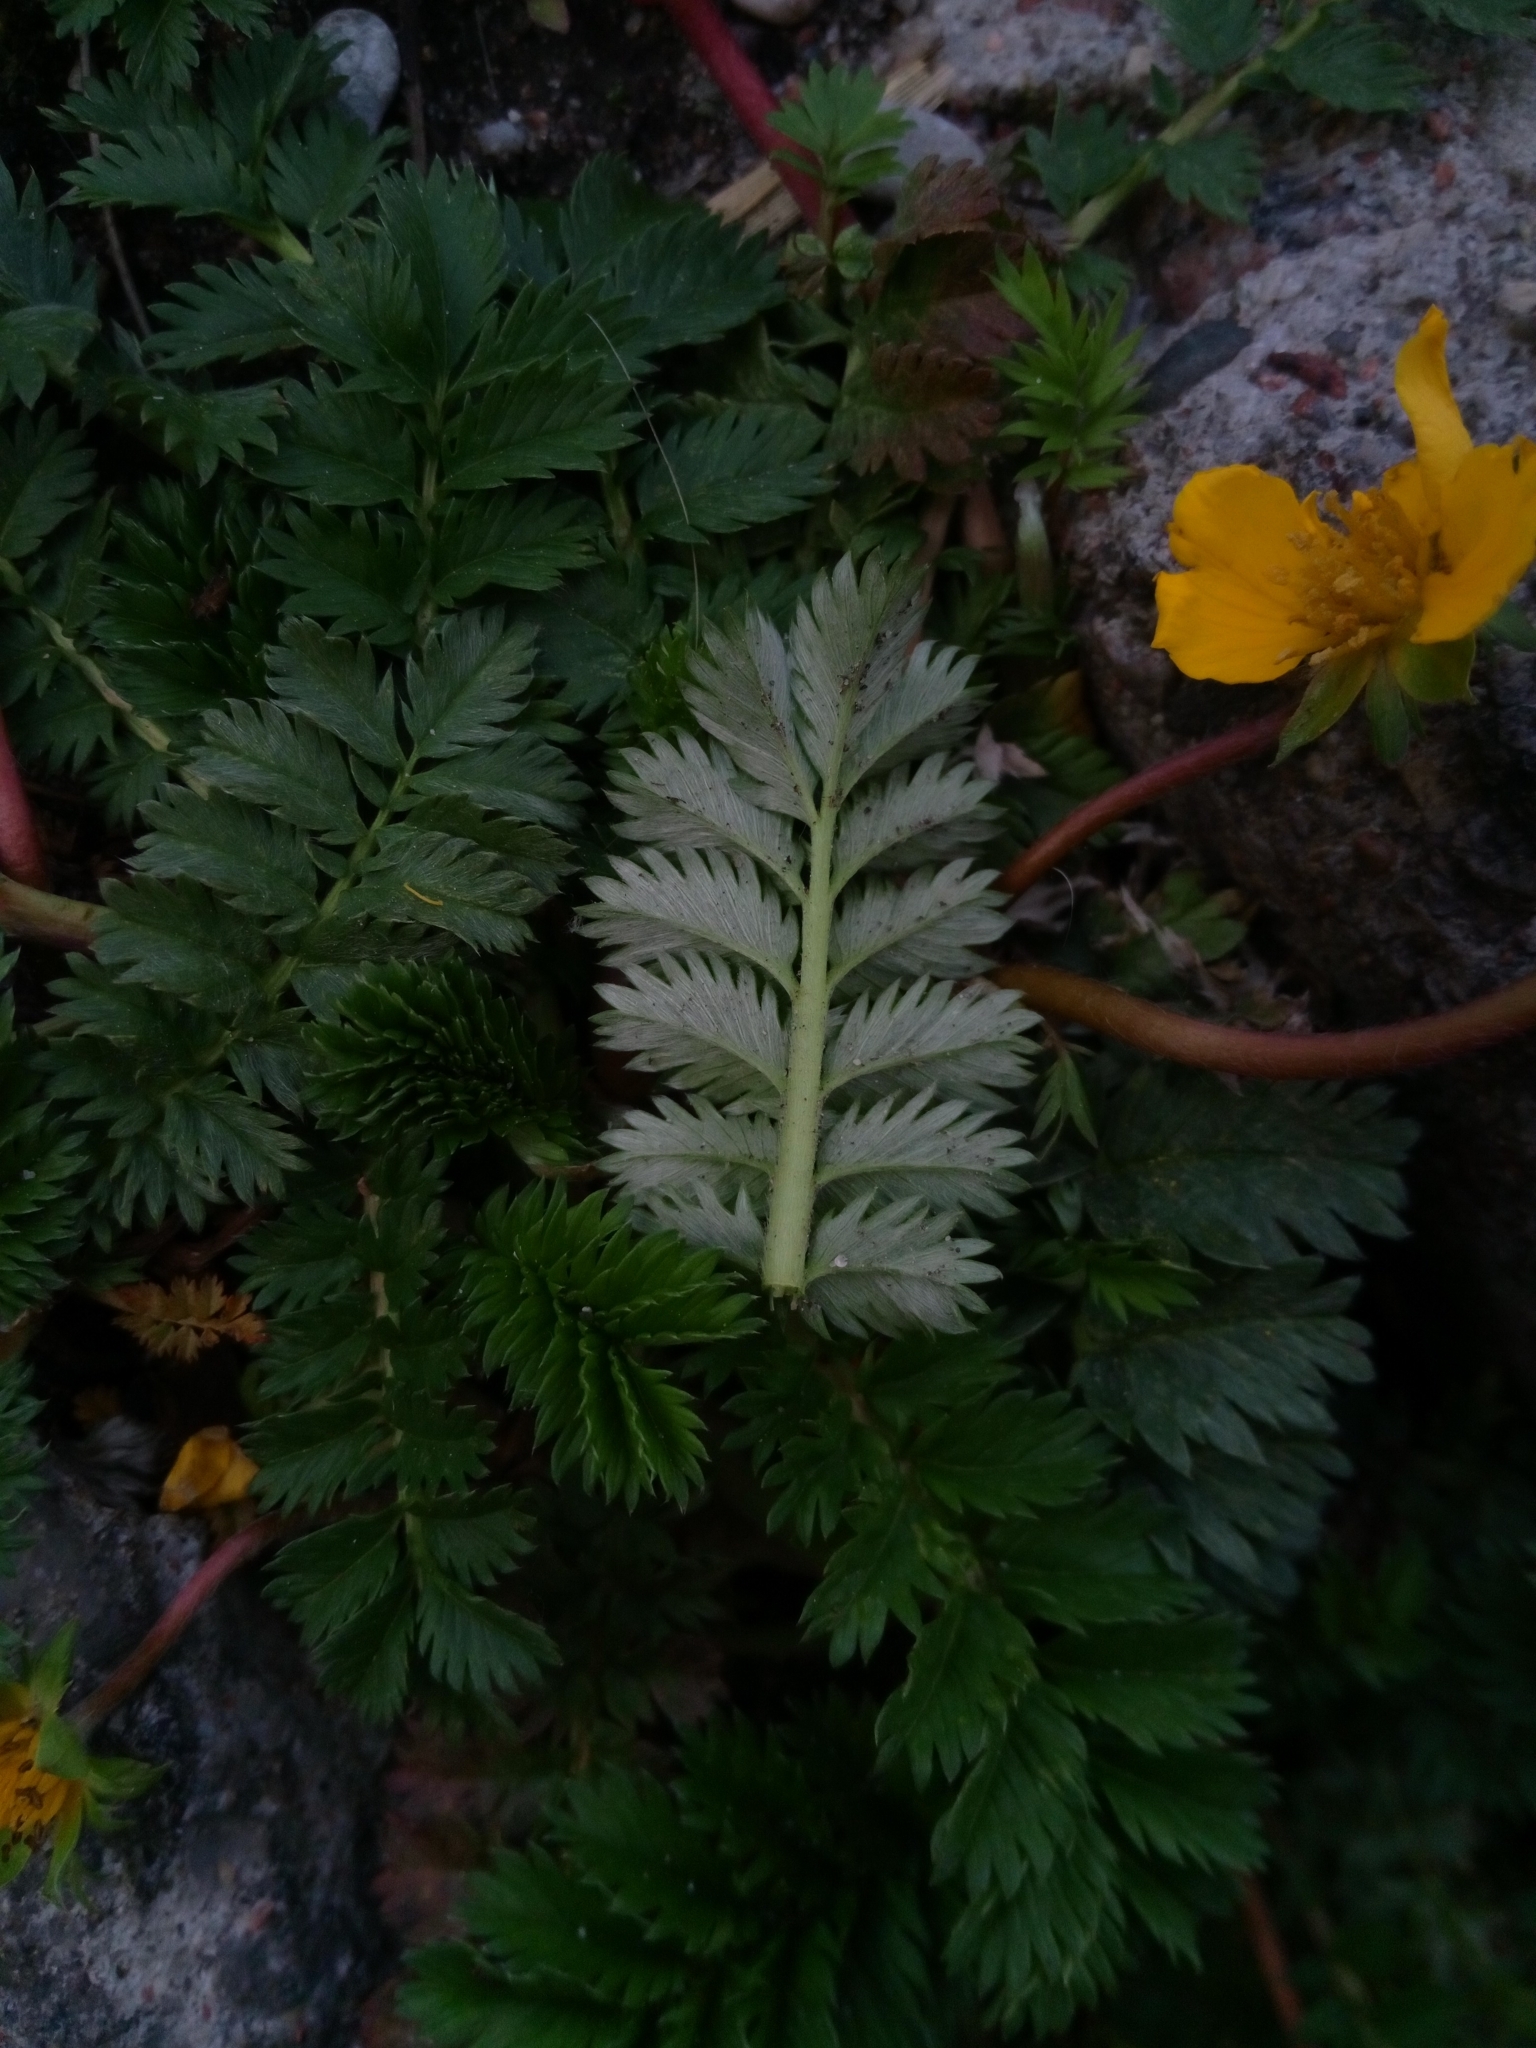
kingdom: Plantae
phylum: Tracheophyta
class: Magnoliopsida
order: Rosales
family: Rosaceae
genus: Argentina
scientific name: Argentina anserina
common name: Common silverweed
